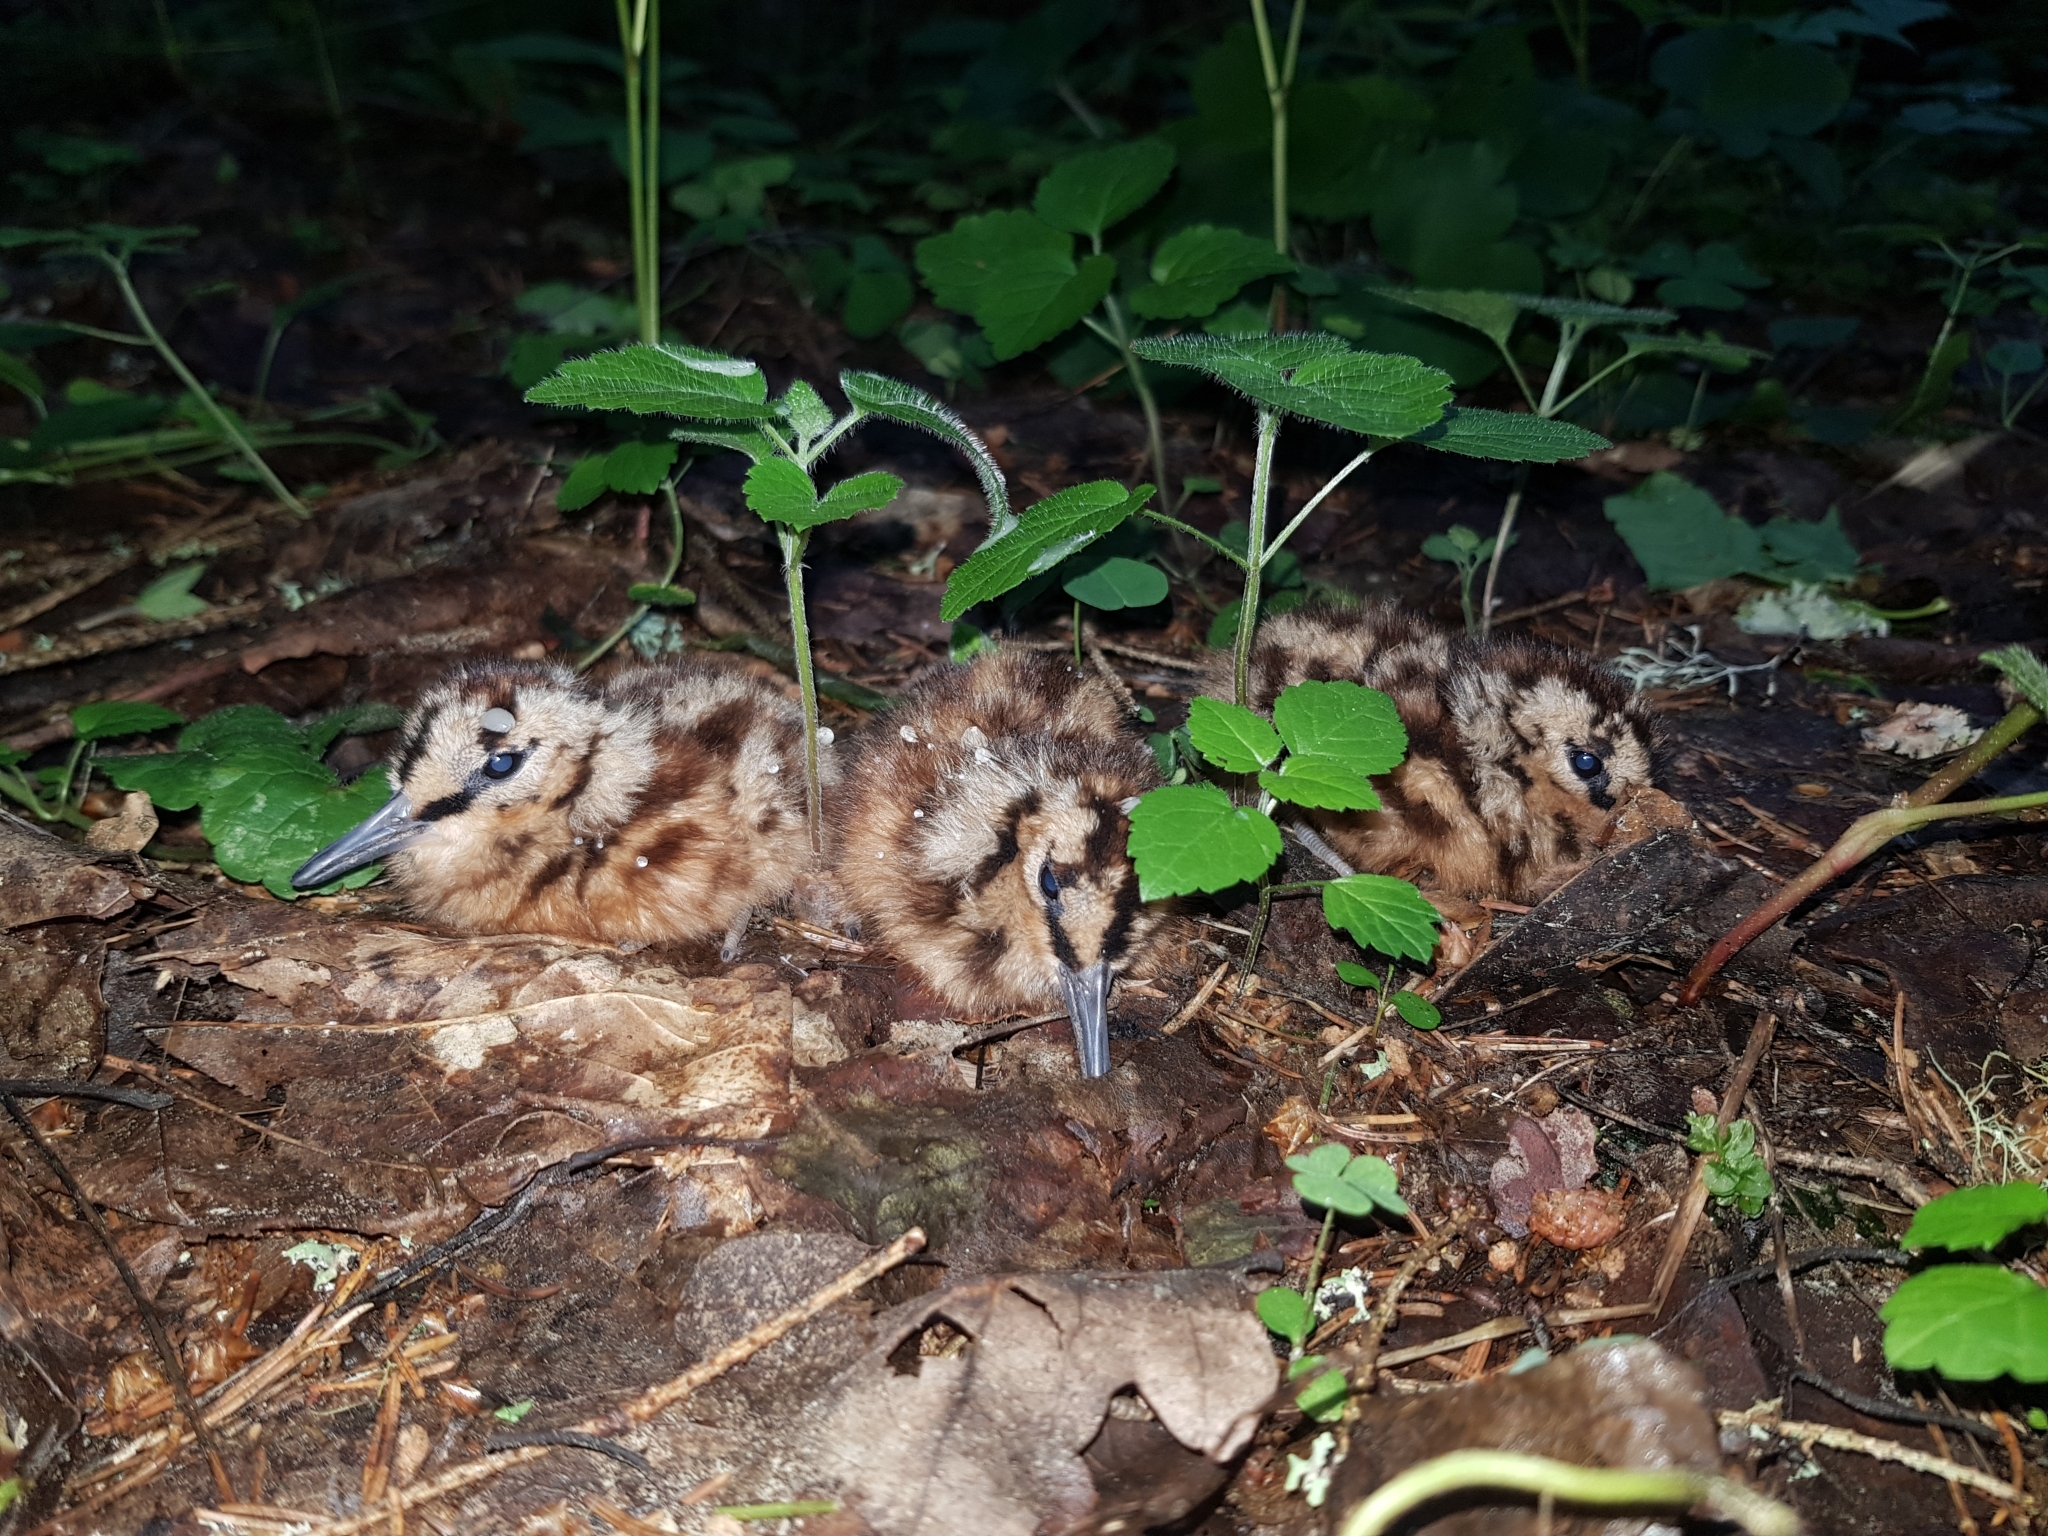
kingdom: Animalia
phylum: Chordata
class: Aves
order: Charadriiformes
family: Scolopacidae
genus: Scolopax
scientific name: Scolopax rusticola
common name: Eurasian woodcock
